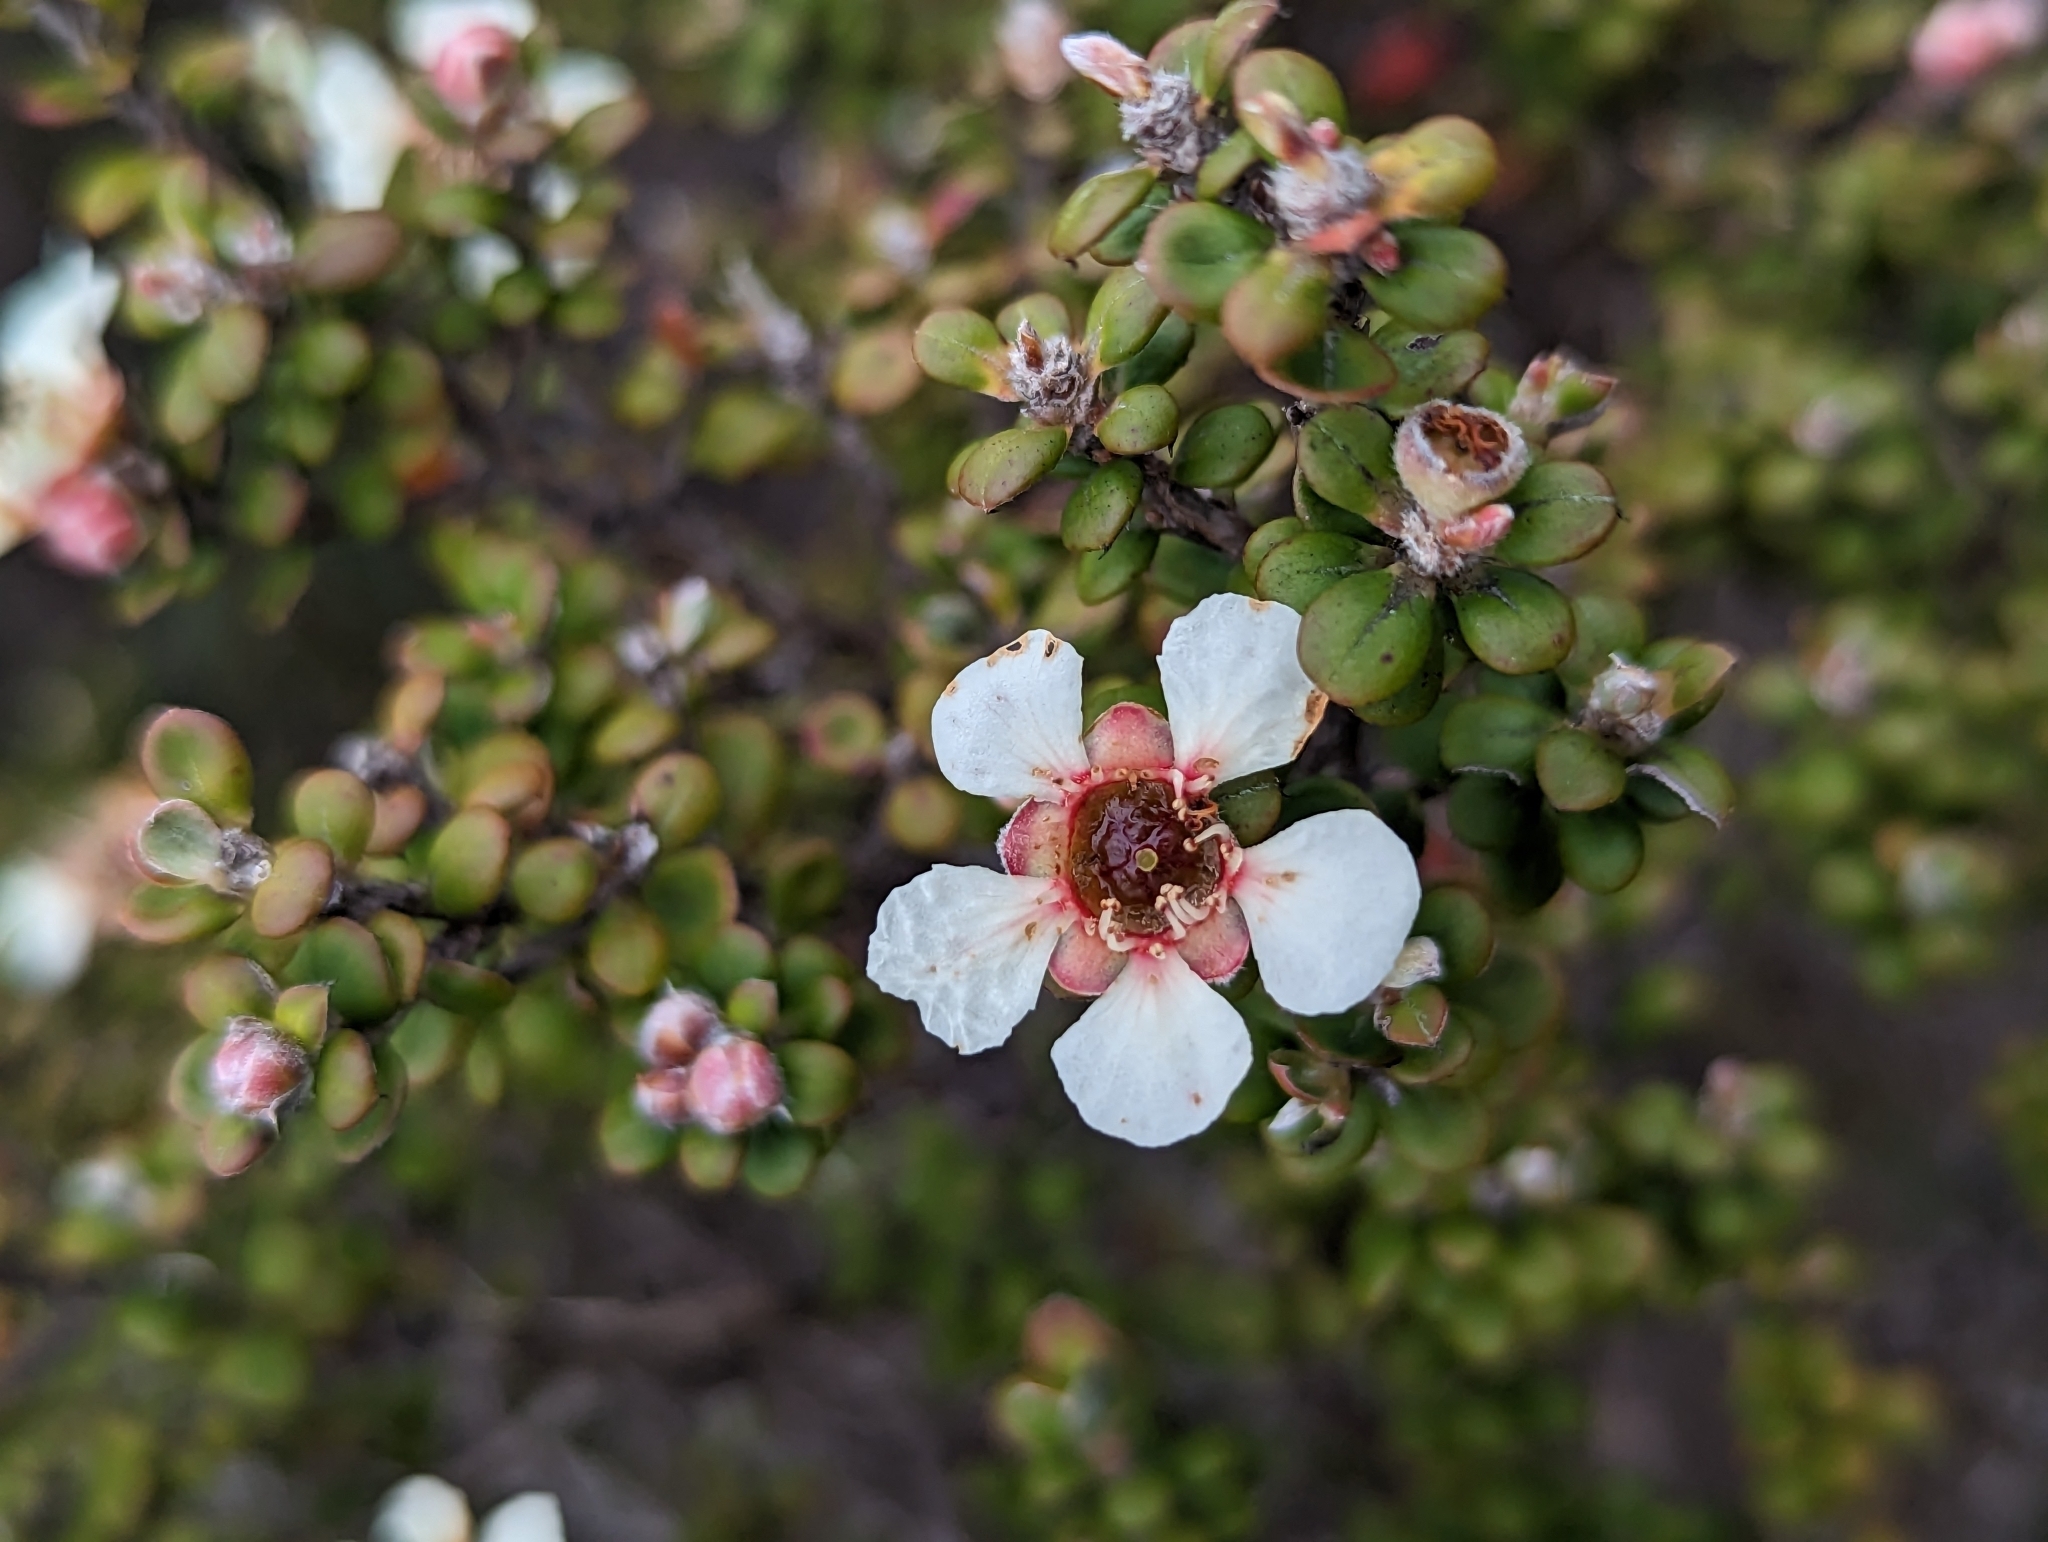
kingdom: Plantae
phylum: Tracheophyta
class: Magnoliopsida
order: Myrtales
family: Myrtaceae
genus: Leptospermum
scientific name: Leptospermum recurvum
